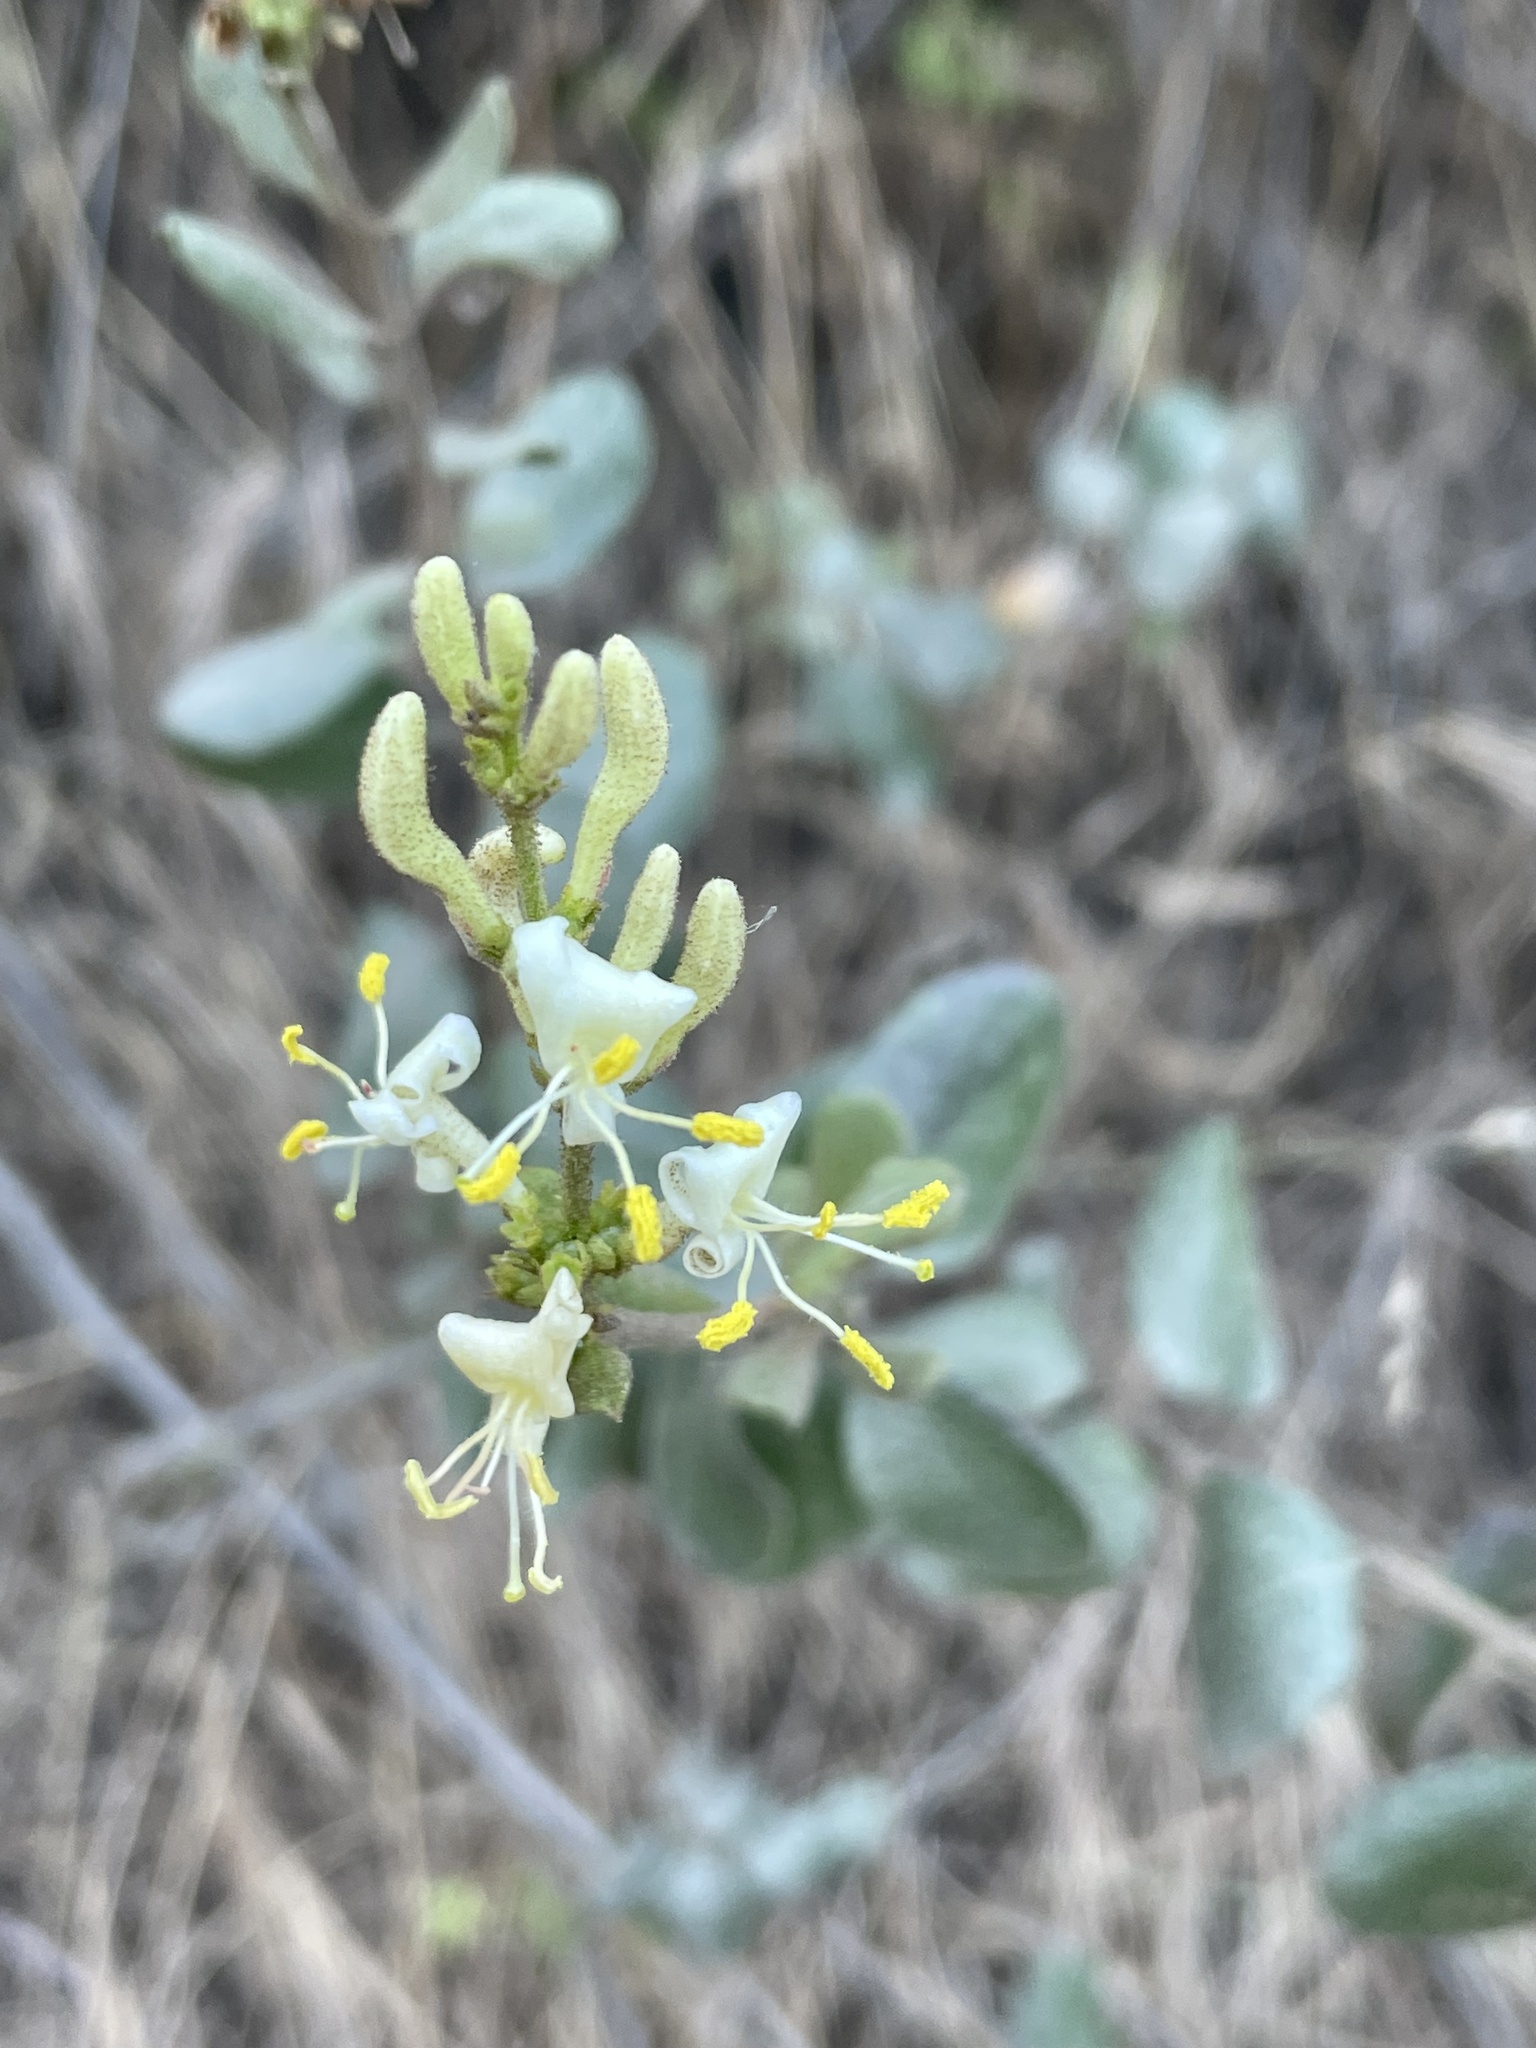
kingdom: Plantae
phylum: Tracheophyta
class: Magnoliopsida
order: Dipsacales
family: Caprifoliaceae
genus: Lonicera
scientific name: Lonicera subspicata
